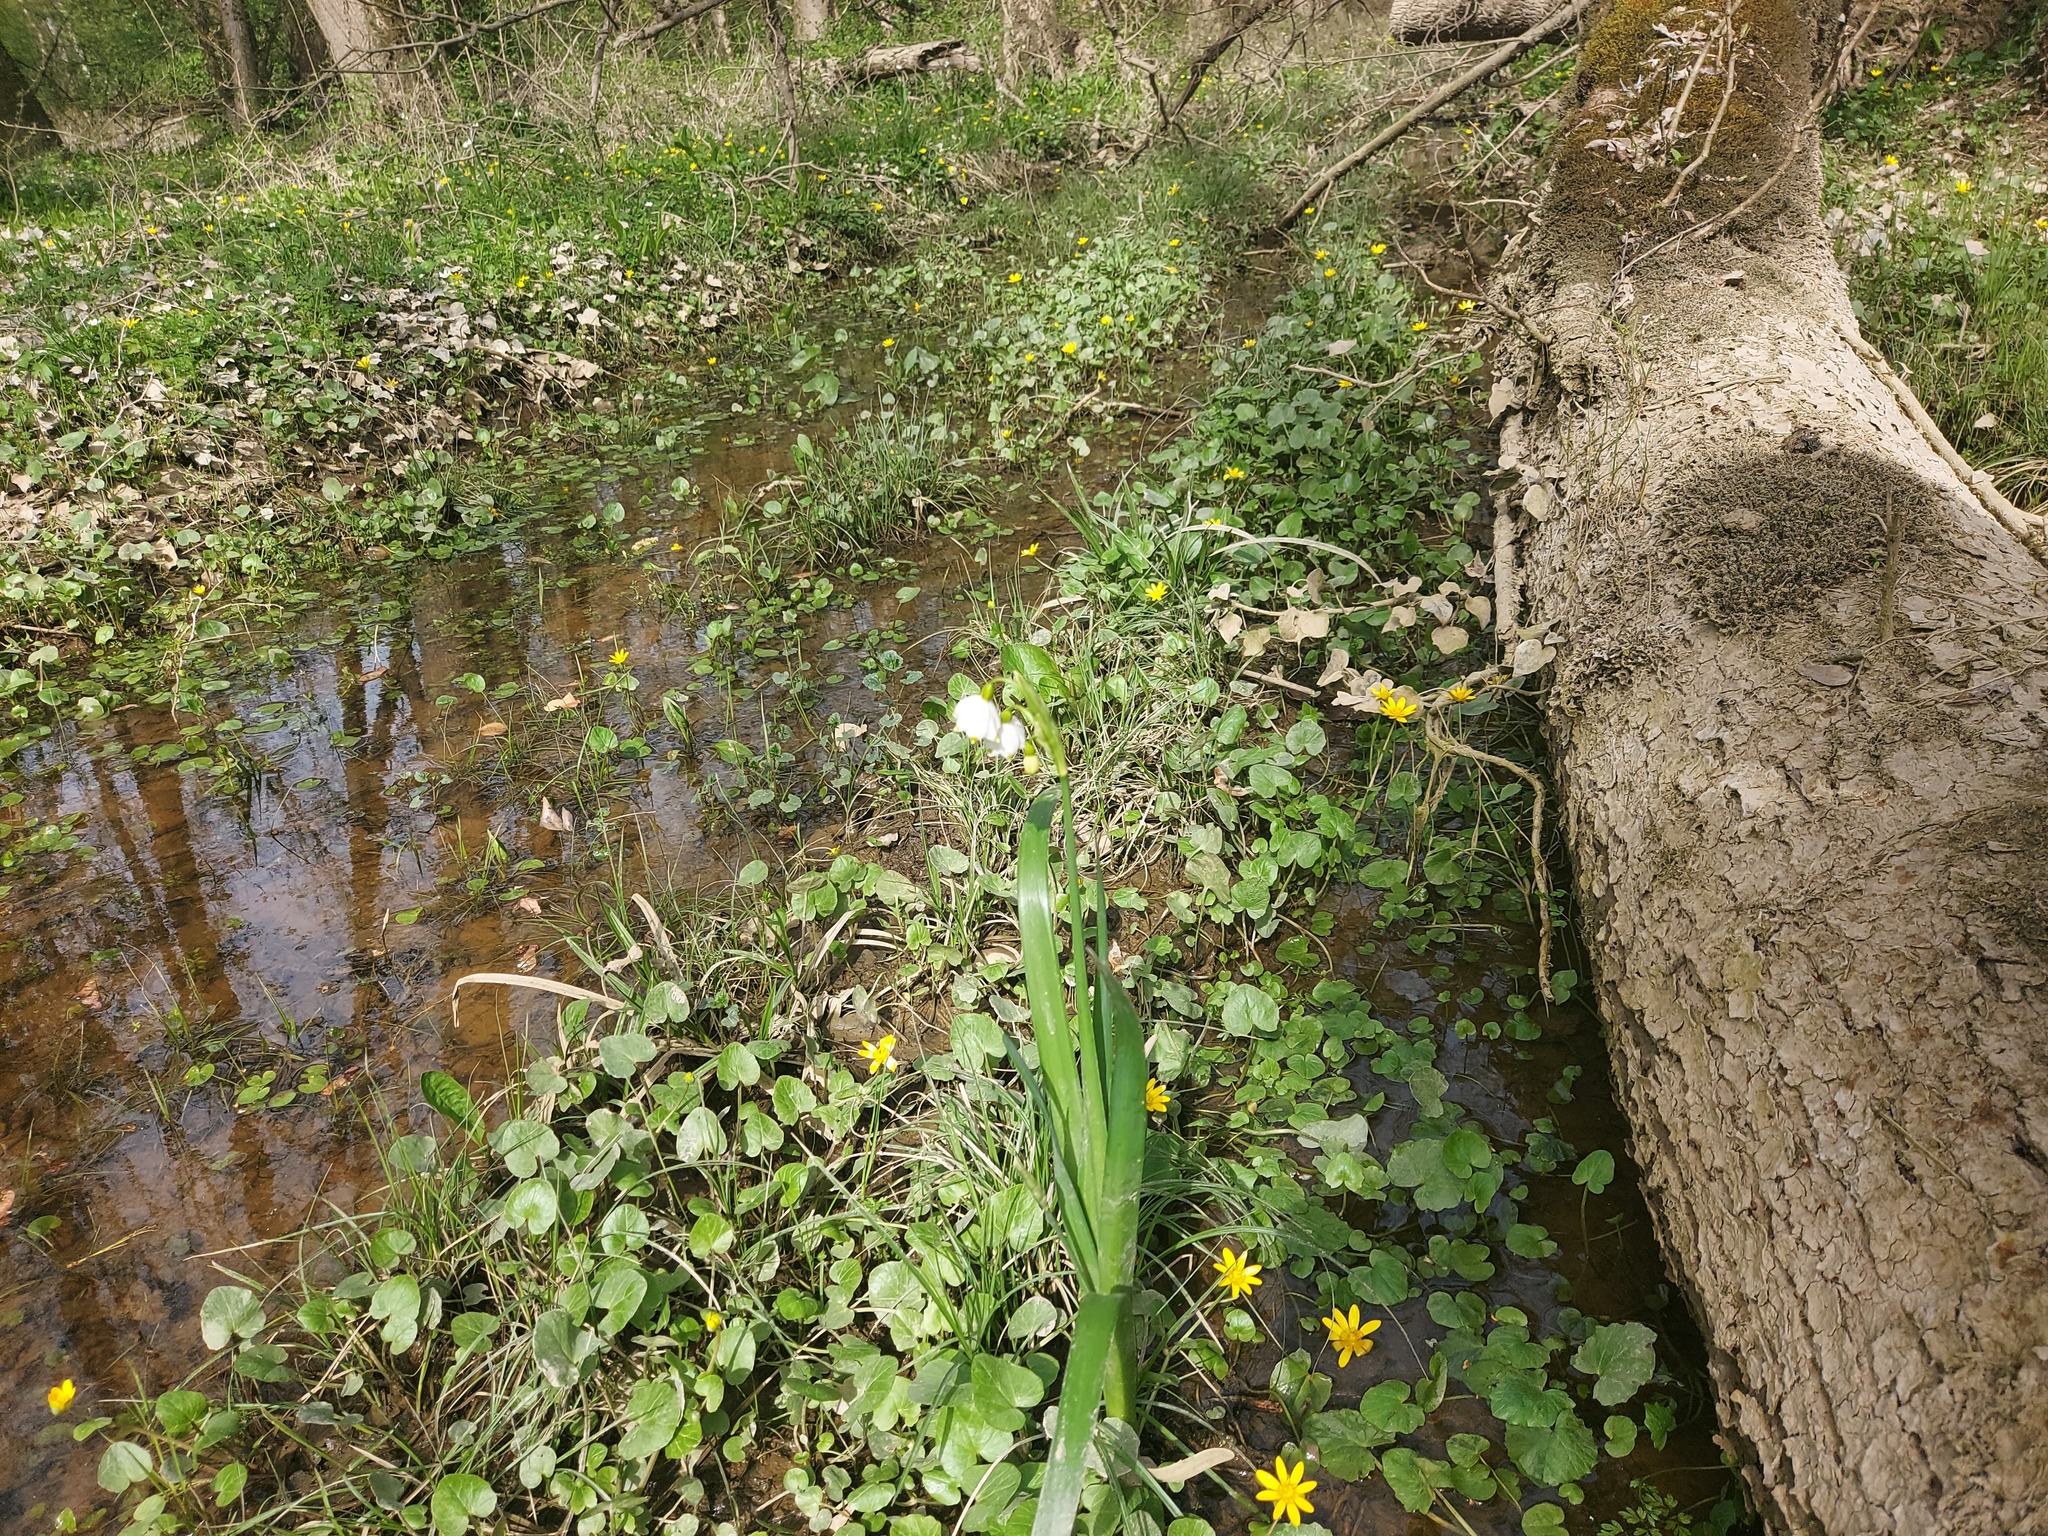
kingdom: Plantae
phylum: Tracheophyta
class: Liliopsida
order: Asparagales
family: Amaryllidaceae
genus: Leucojum
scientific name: Leucojum aestivum
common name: Summer snowflake
